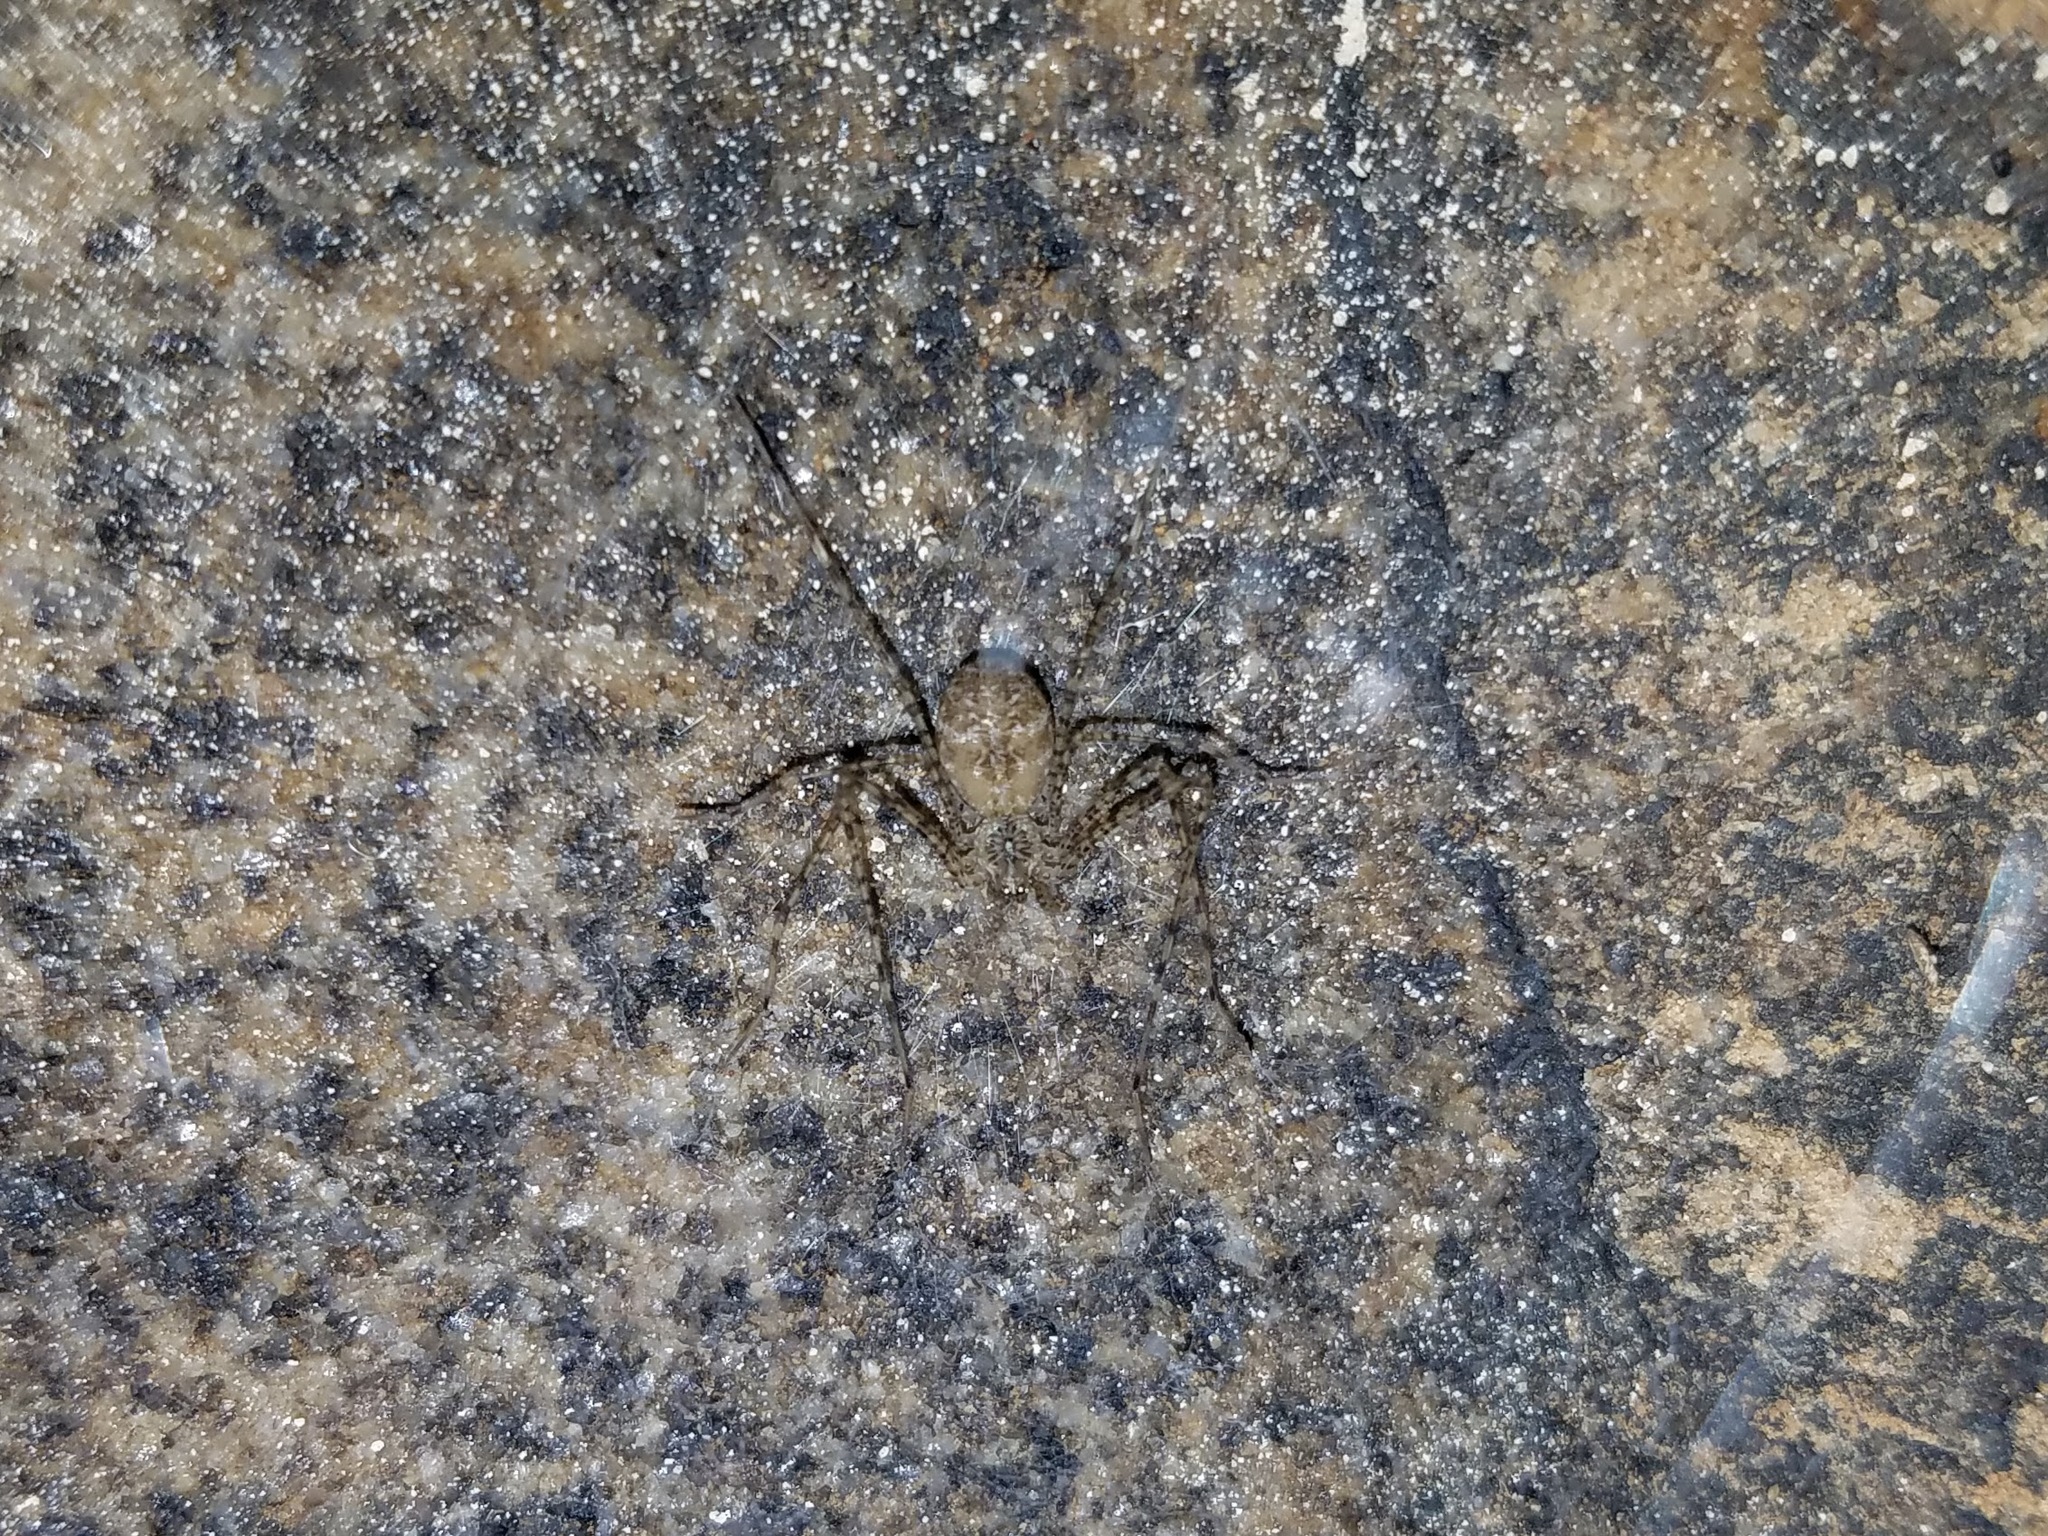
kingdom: Animalia
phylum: Arthropoda
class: Arachnida
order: Araneae
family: Hypochilidae
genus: Hypochilus
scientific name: Hypochilus thorelli
